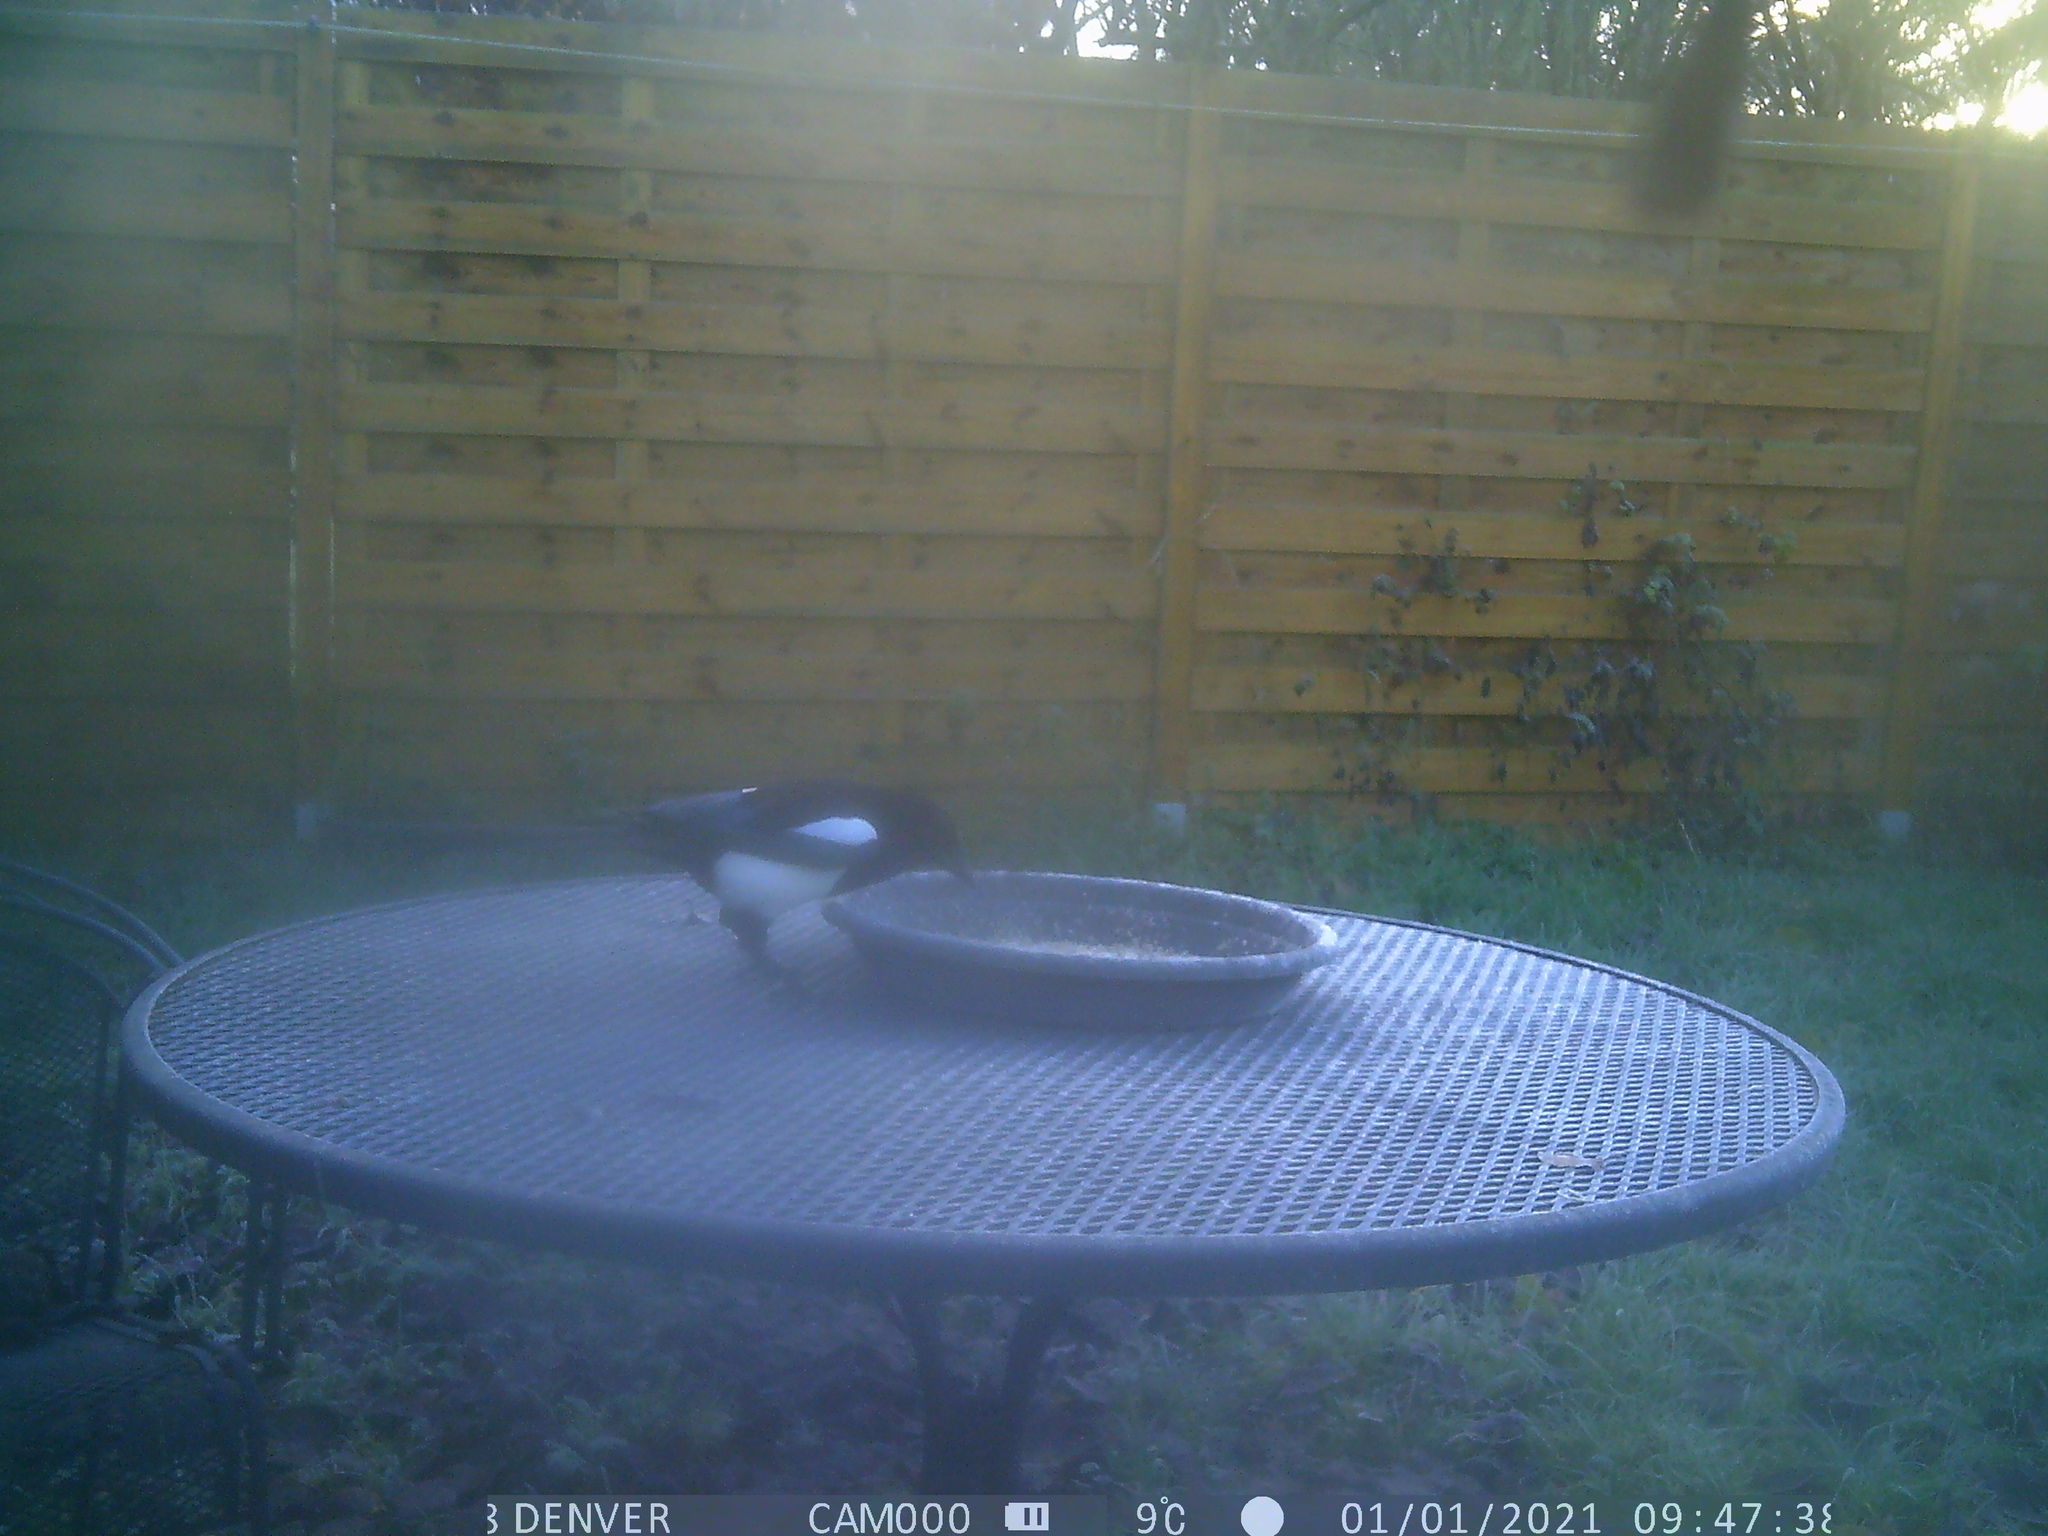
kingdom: Animalia
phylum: Chordata
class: Aves
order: Passeriformes
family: Corvidae
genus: Pica
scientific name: Pica pica
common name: Eurasian magpie
